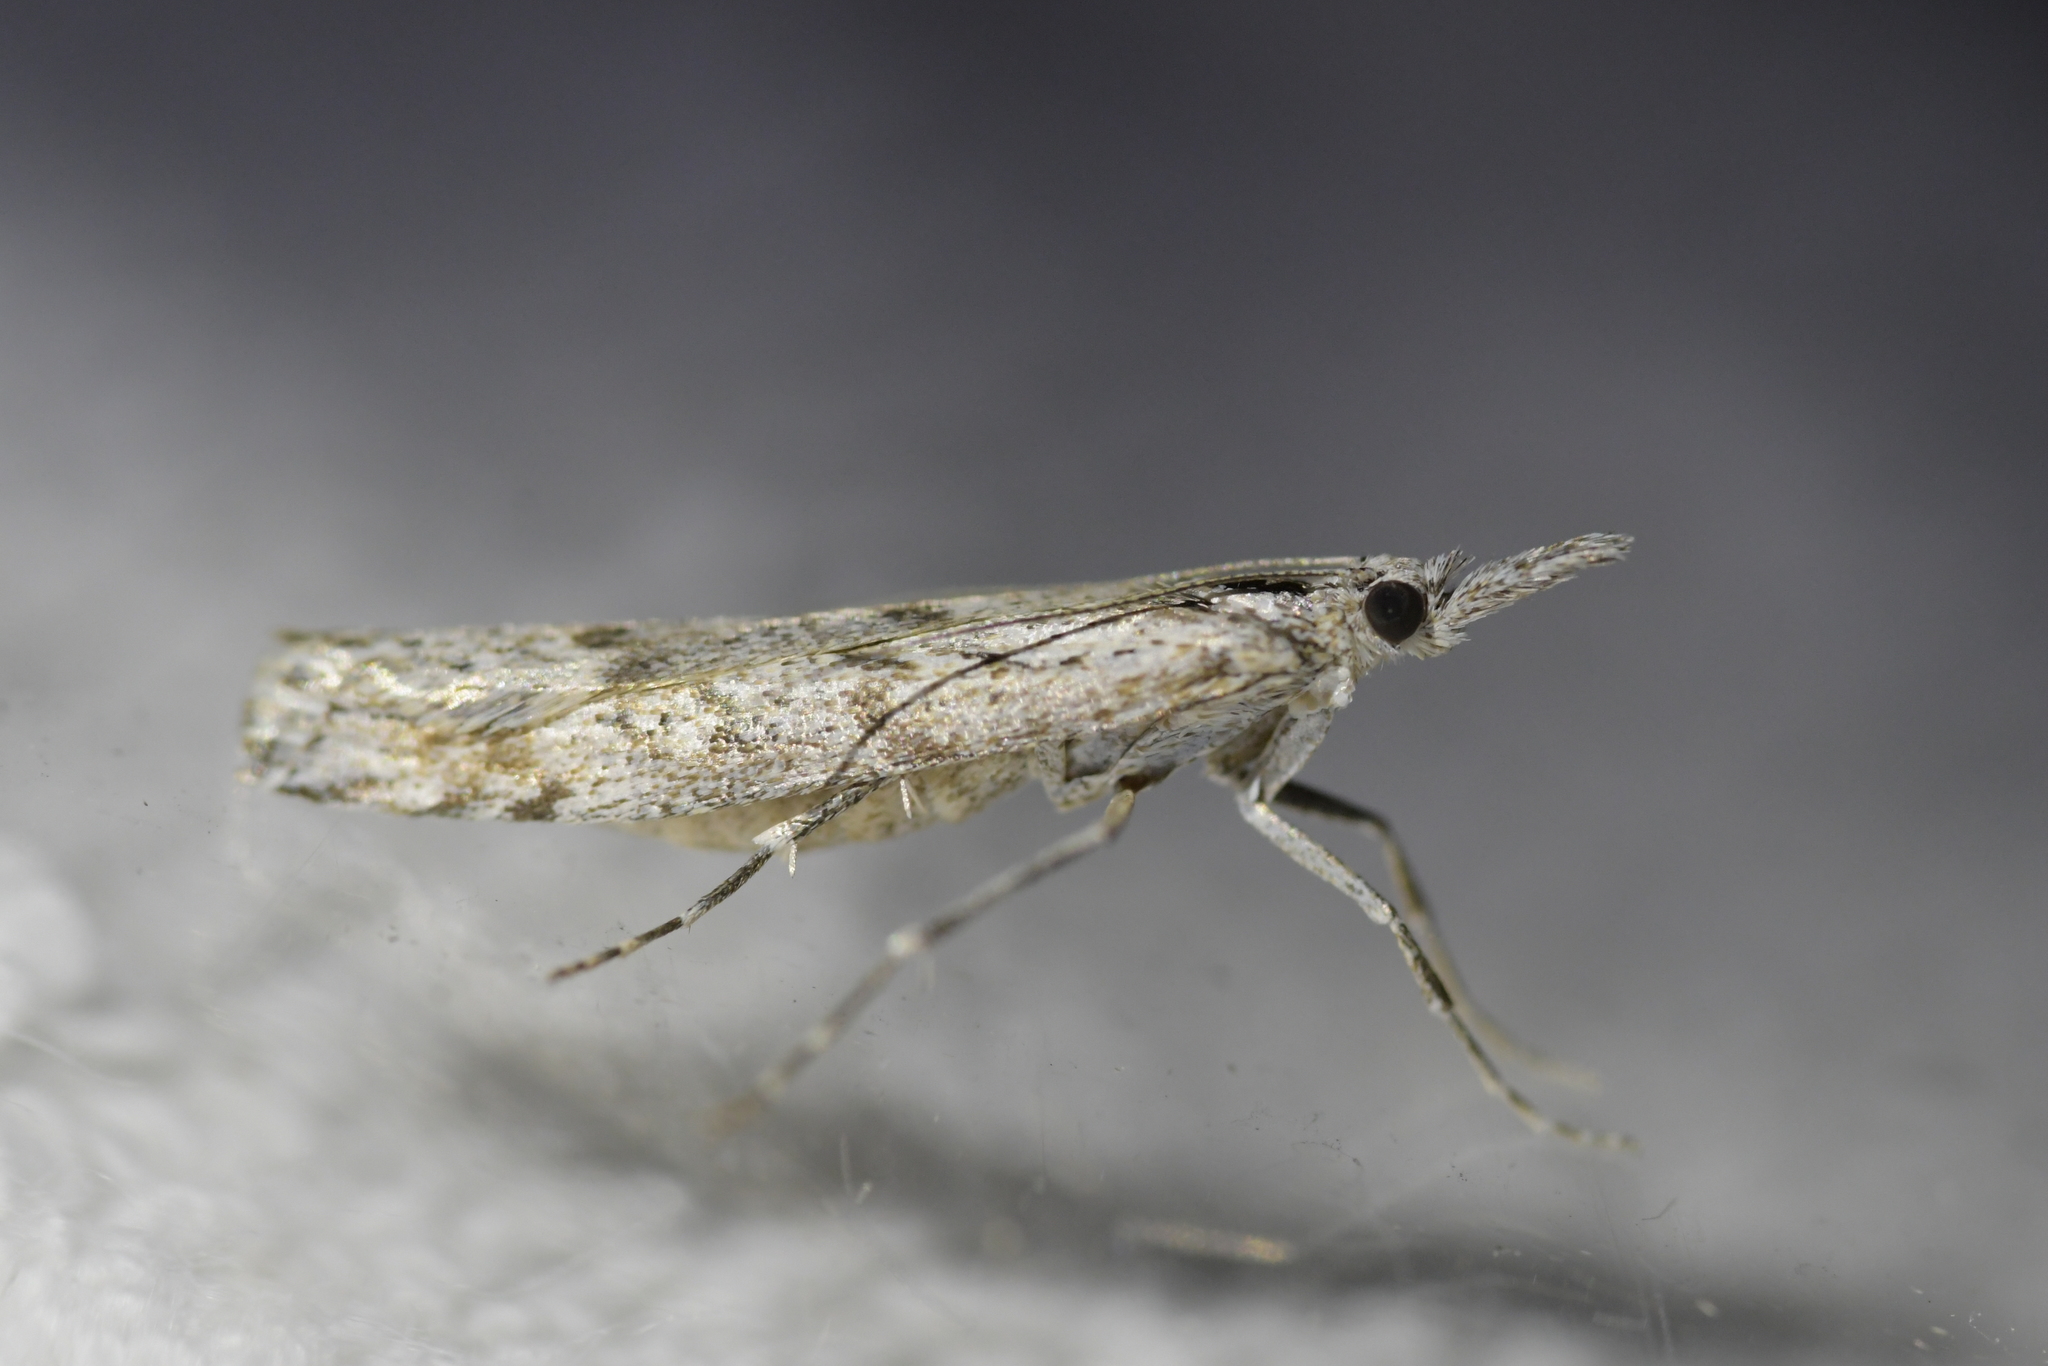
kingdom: Animalia
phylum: Arthropoda
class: Insecta
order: Lepidoptera
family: Crambidae
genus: Orocrambus
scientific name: Orocrambus cyclopicus
